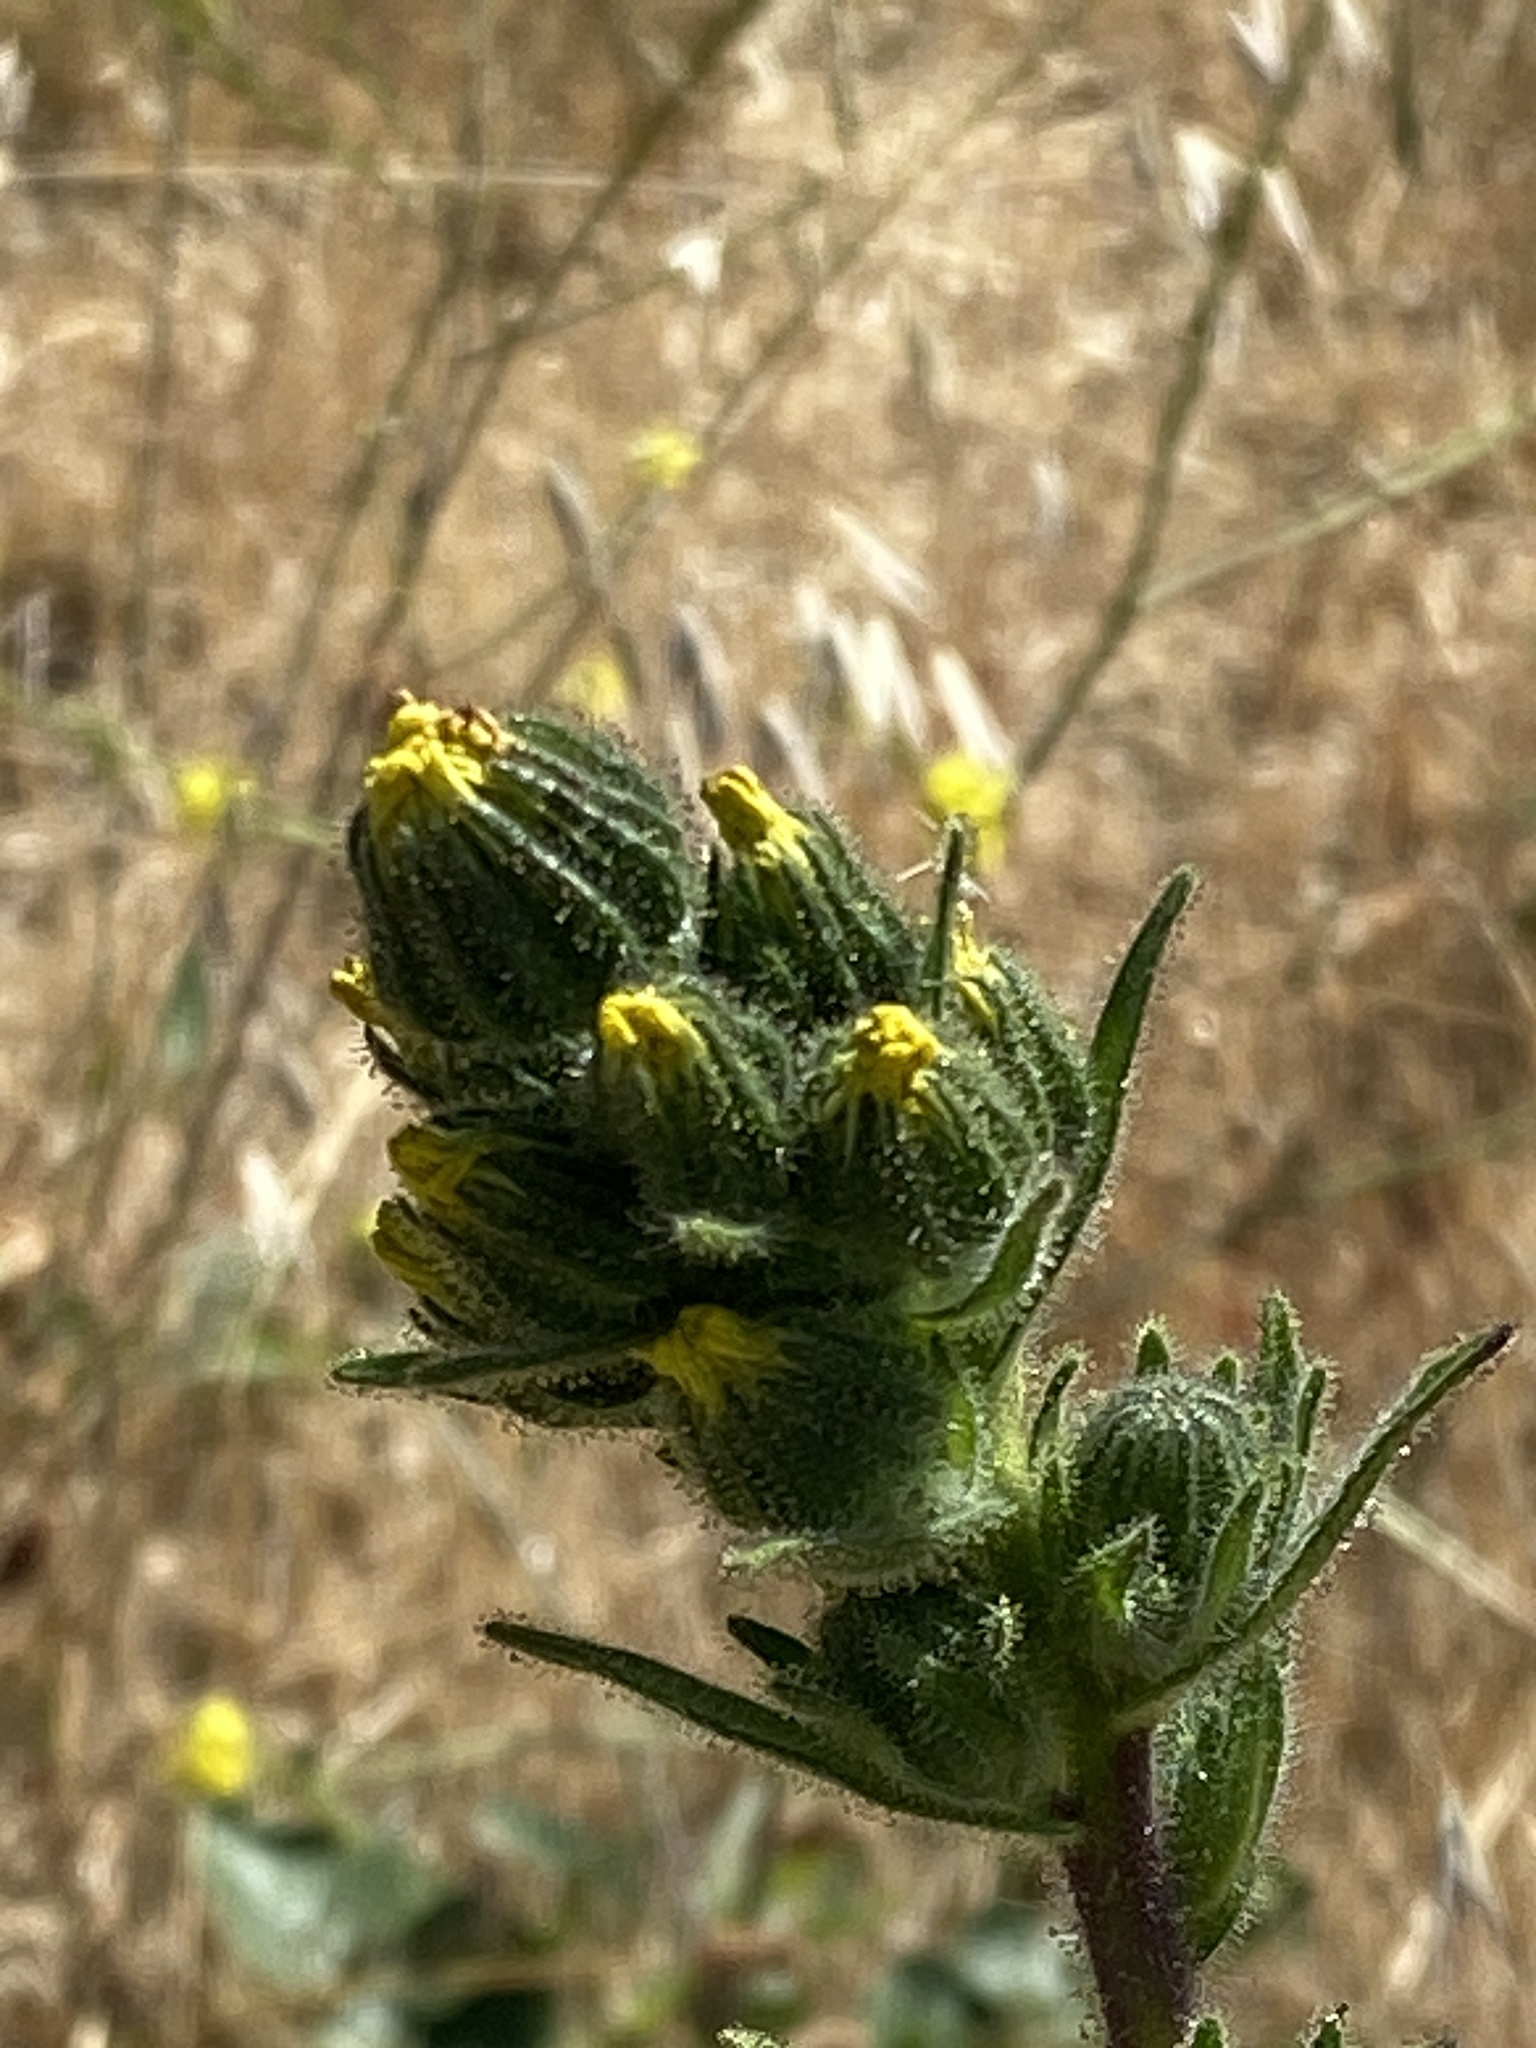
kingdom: Plantae
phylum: Tracheophyta
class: Magnoliopsida
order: Asterales
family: Asteraceae
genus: Madia
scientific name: Madia sativa
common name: Coast tarweed
